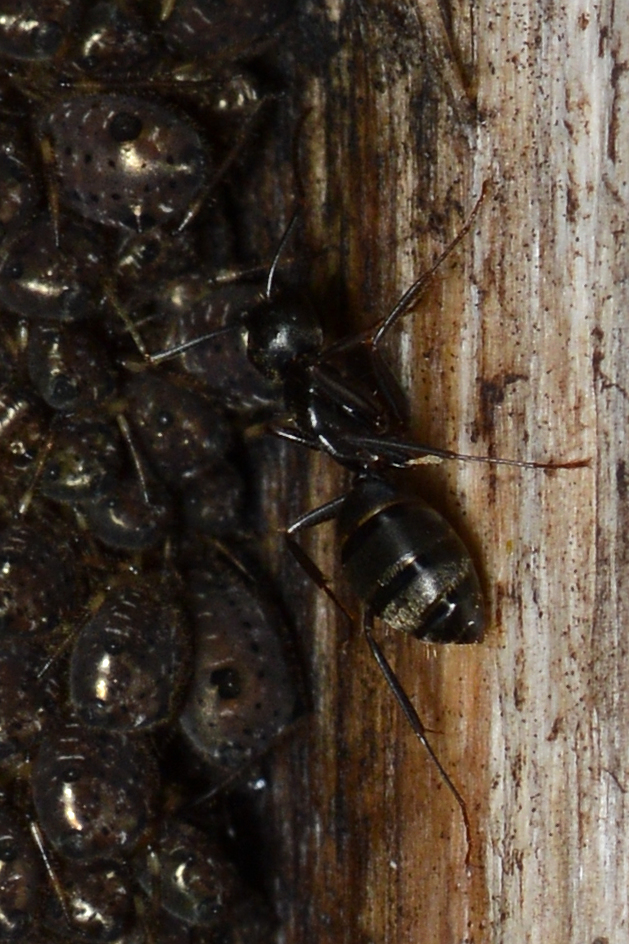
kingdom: Animalia
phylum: Arthropoda
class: Insecta
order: Hymenoptera
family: Formicidae
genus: Camponotus
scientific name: Camponotus pennsylvanicus
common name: Black carpenter ant
